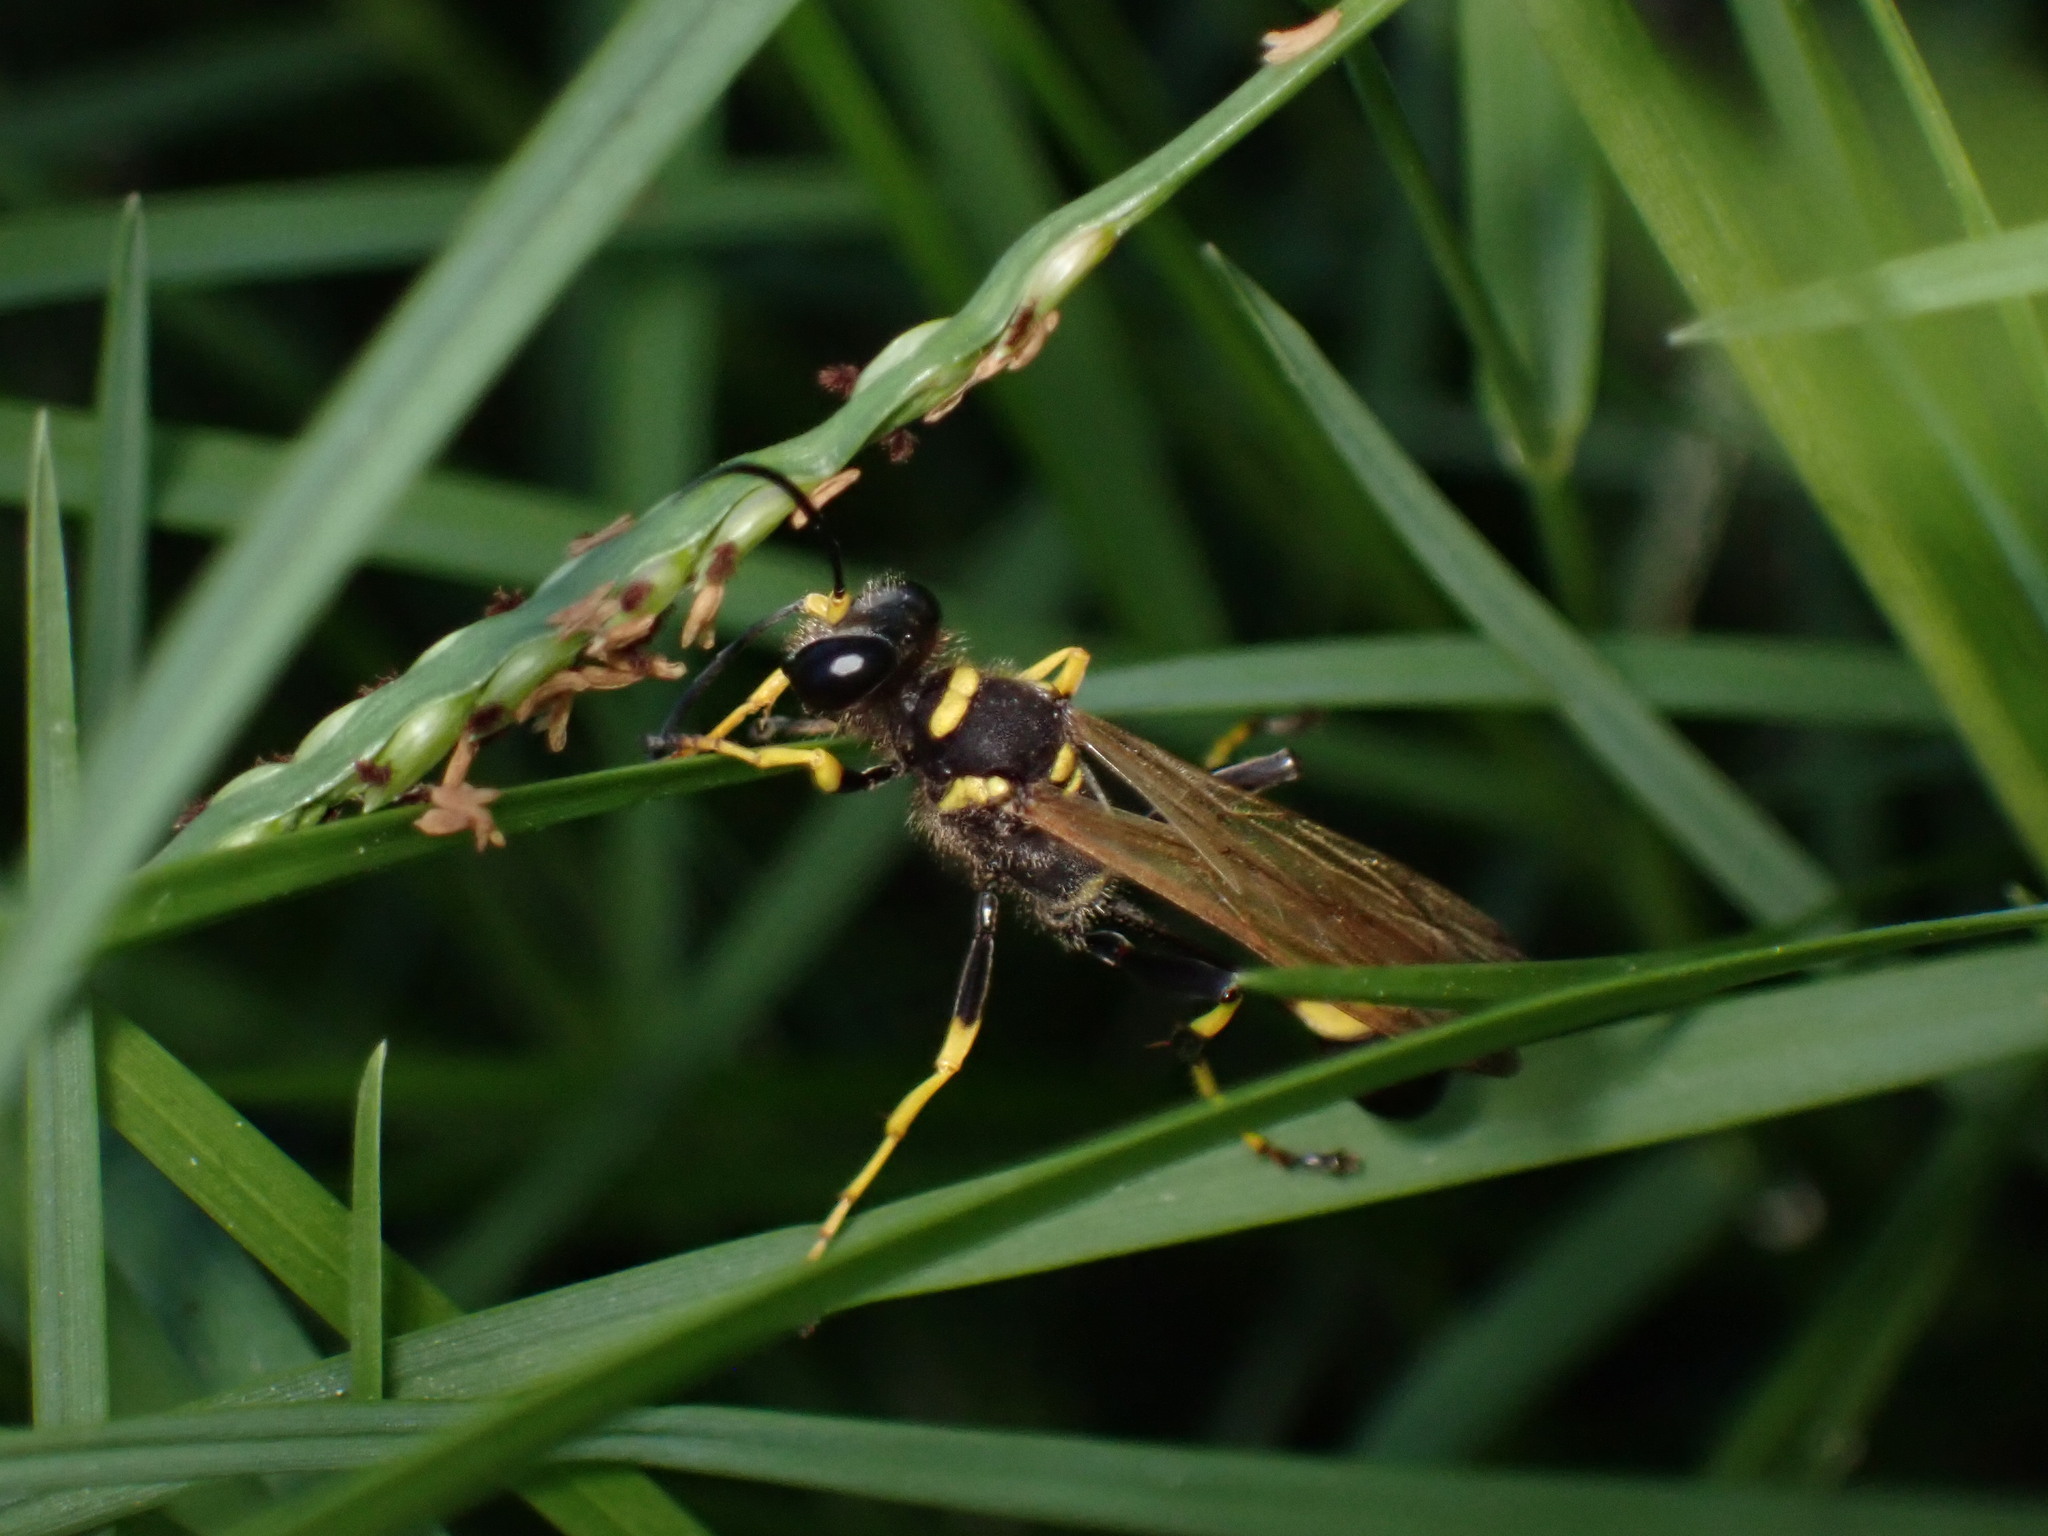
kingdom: Animalia
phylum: Arthropoda
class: Insecta
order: Hymenoptera
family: Sphecidae
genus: Sceliphron
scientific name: Sceliphron caementarium
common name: Mud dauber
